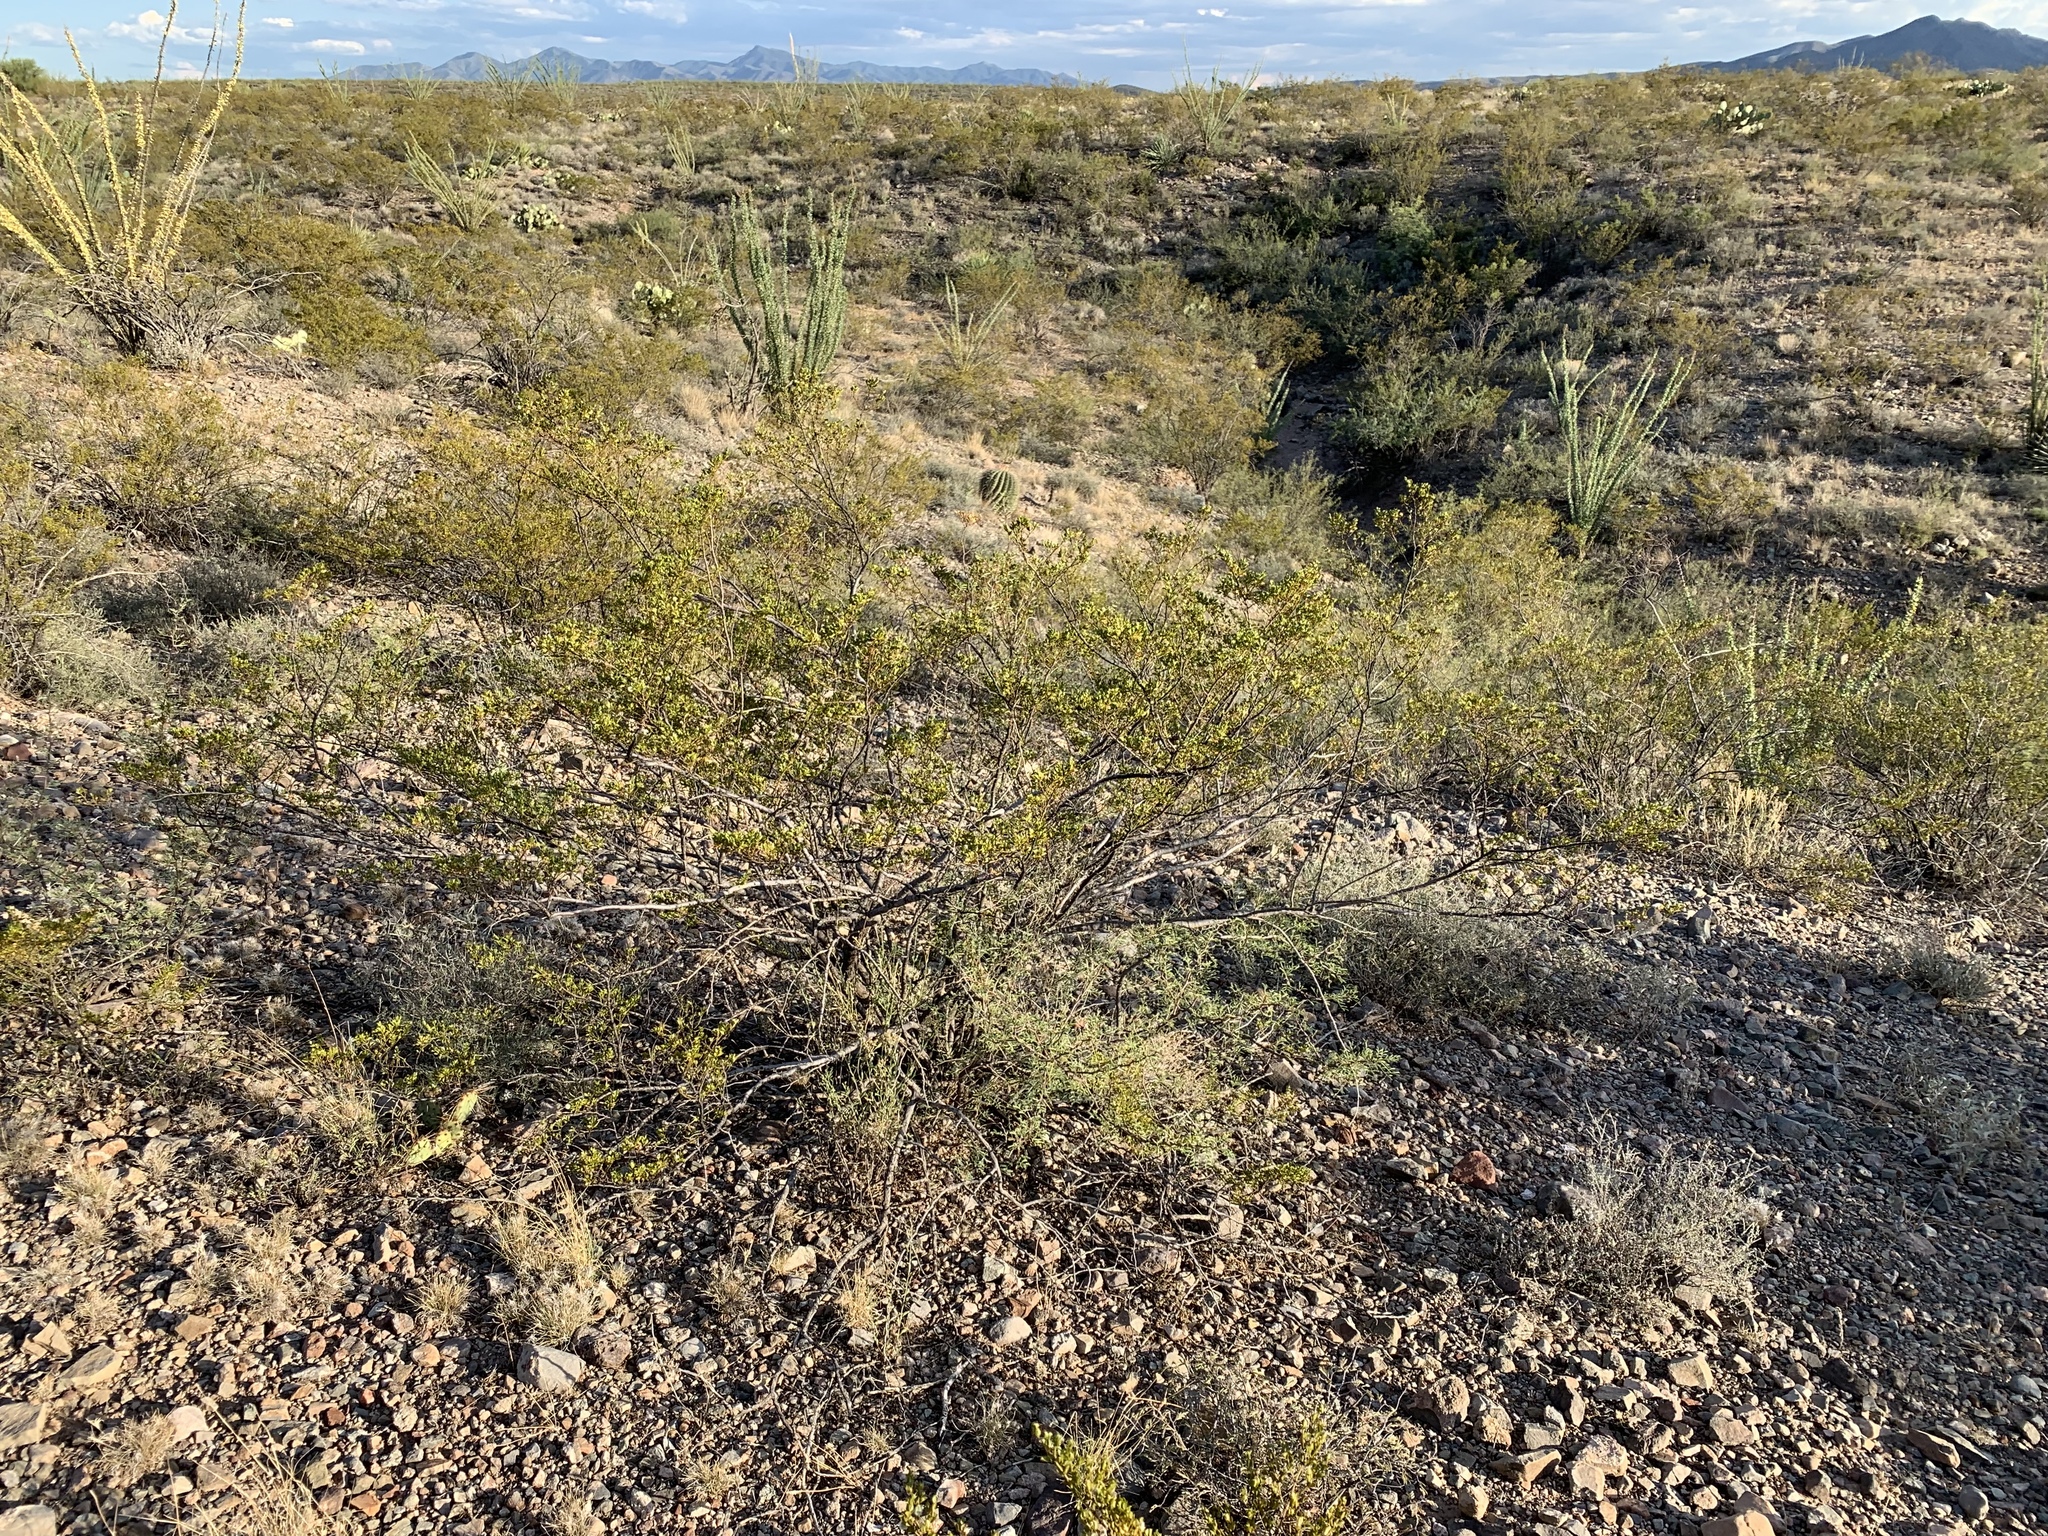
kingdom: Plantae
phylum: Tracheophyta
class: Magnoliopsida
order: Zygophyllales
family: Zygophyllaceae
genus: Larrea
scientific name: Larrea tridentata
